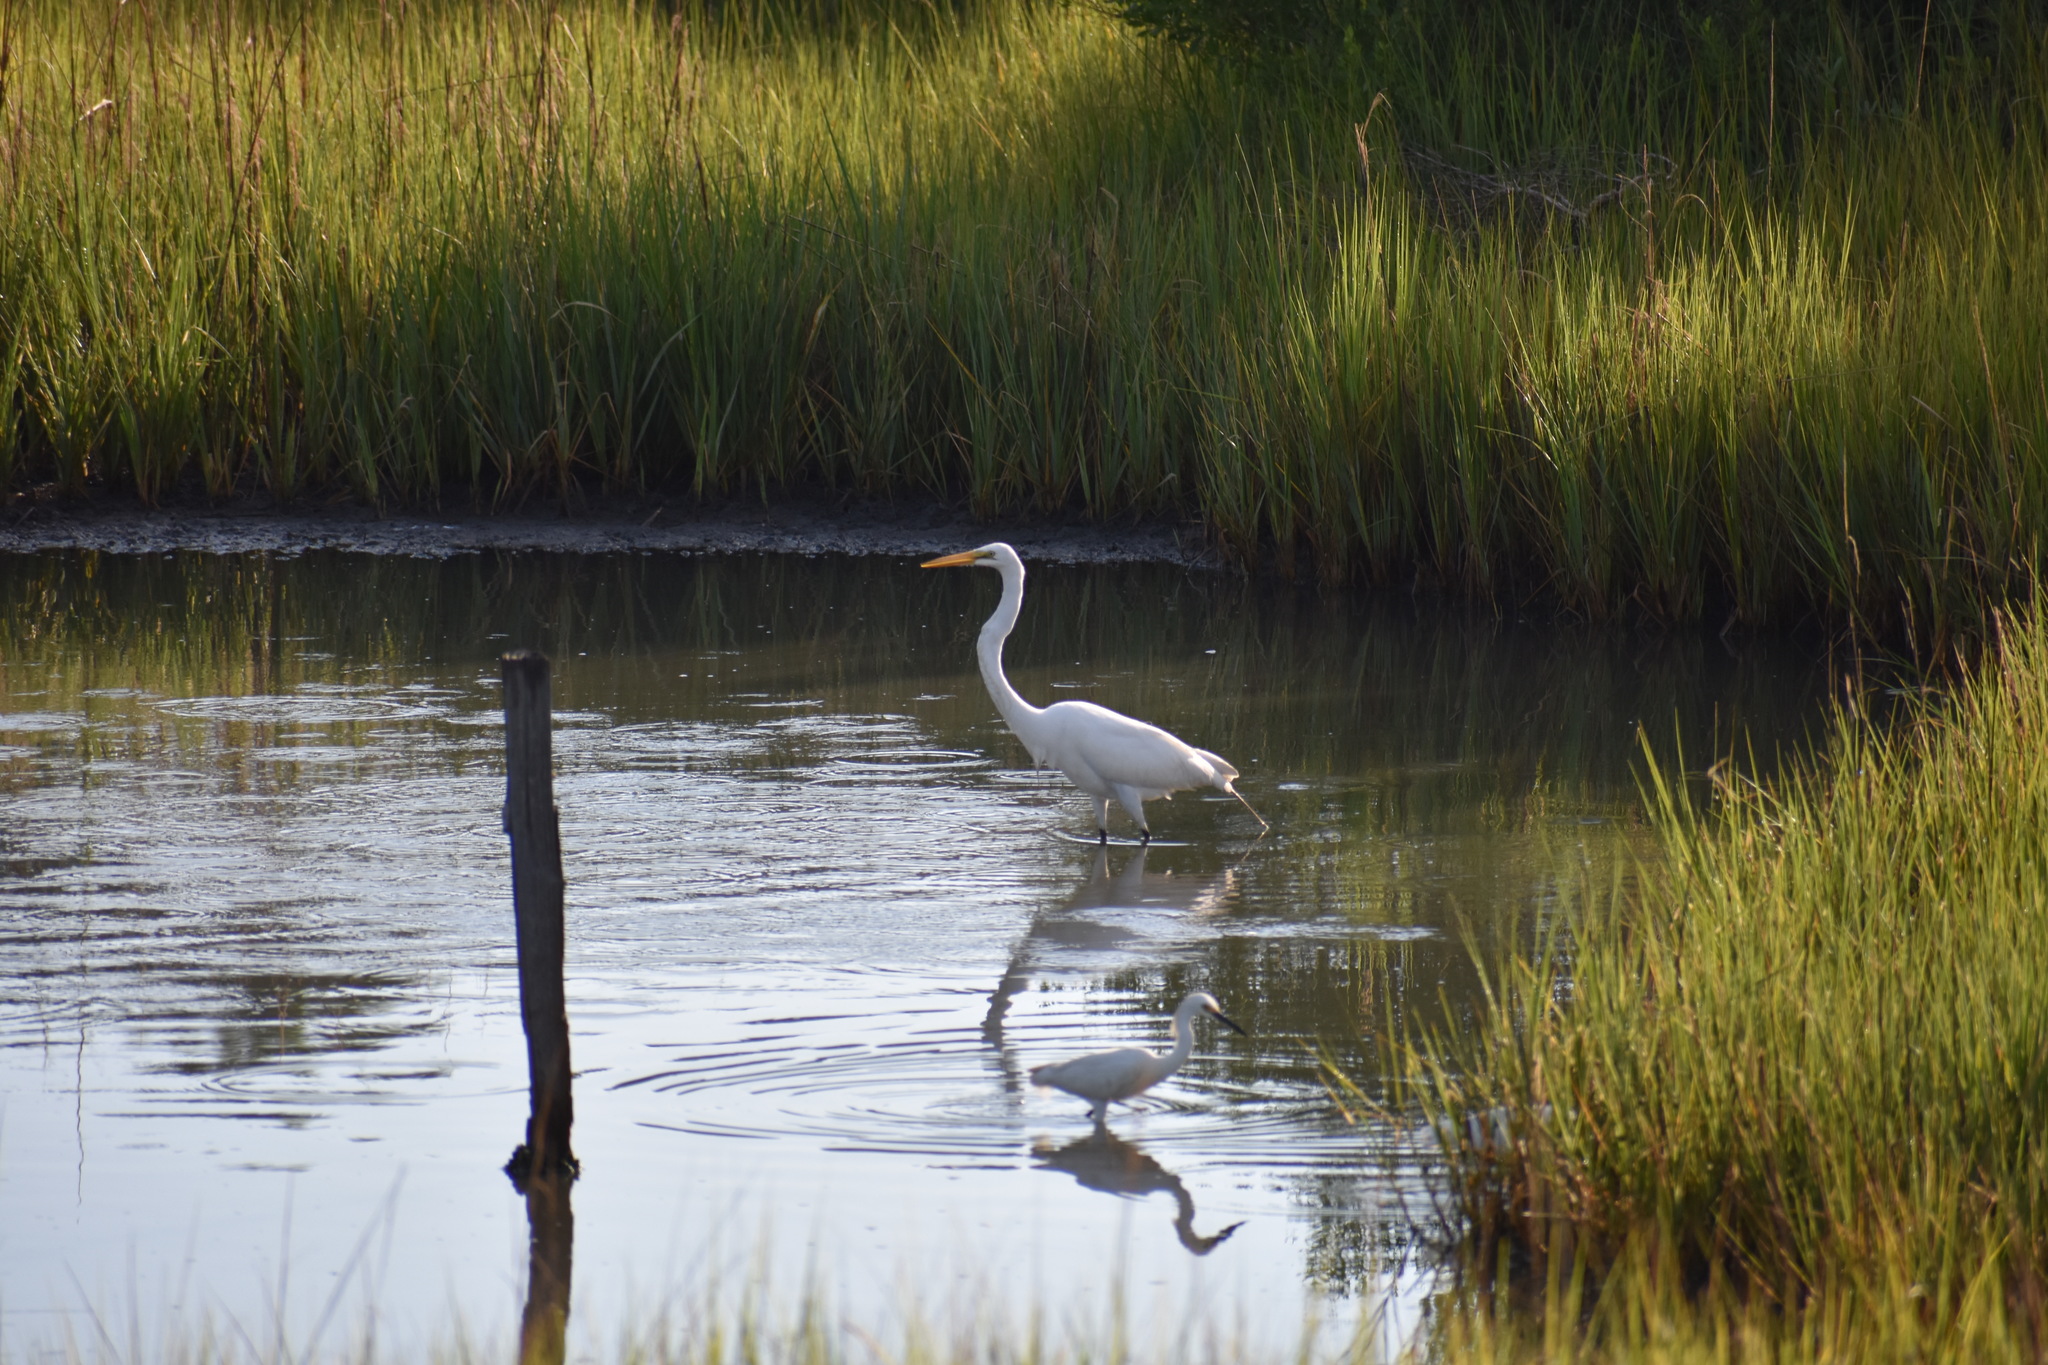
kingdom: Animalia
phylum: Chordata
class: Aves
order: Pelecaniformes
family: Ardeidae
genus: Ardea
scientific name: Ardea alba
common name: Great egret
